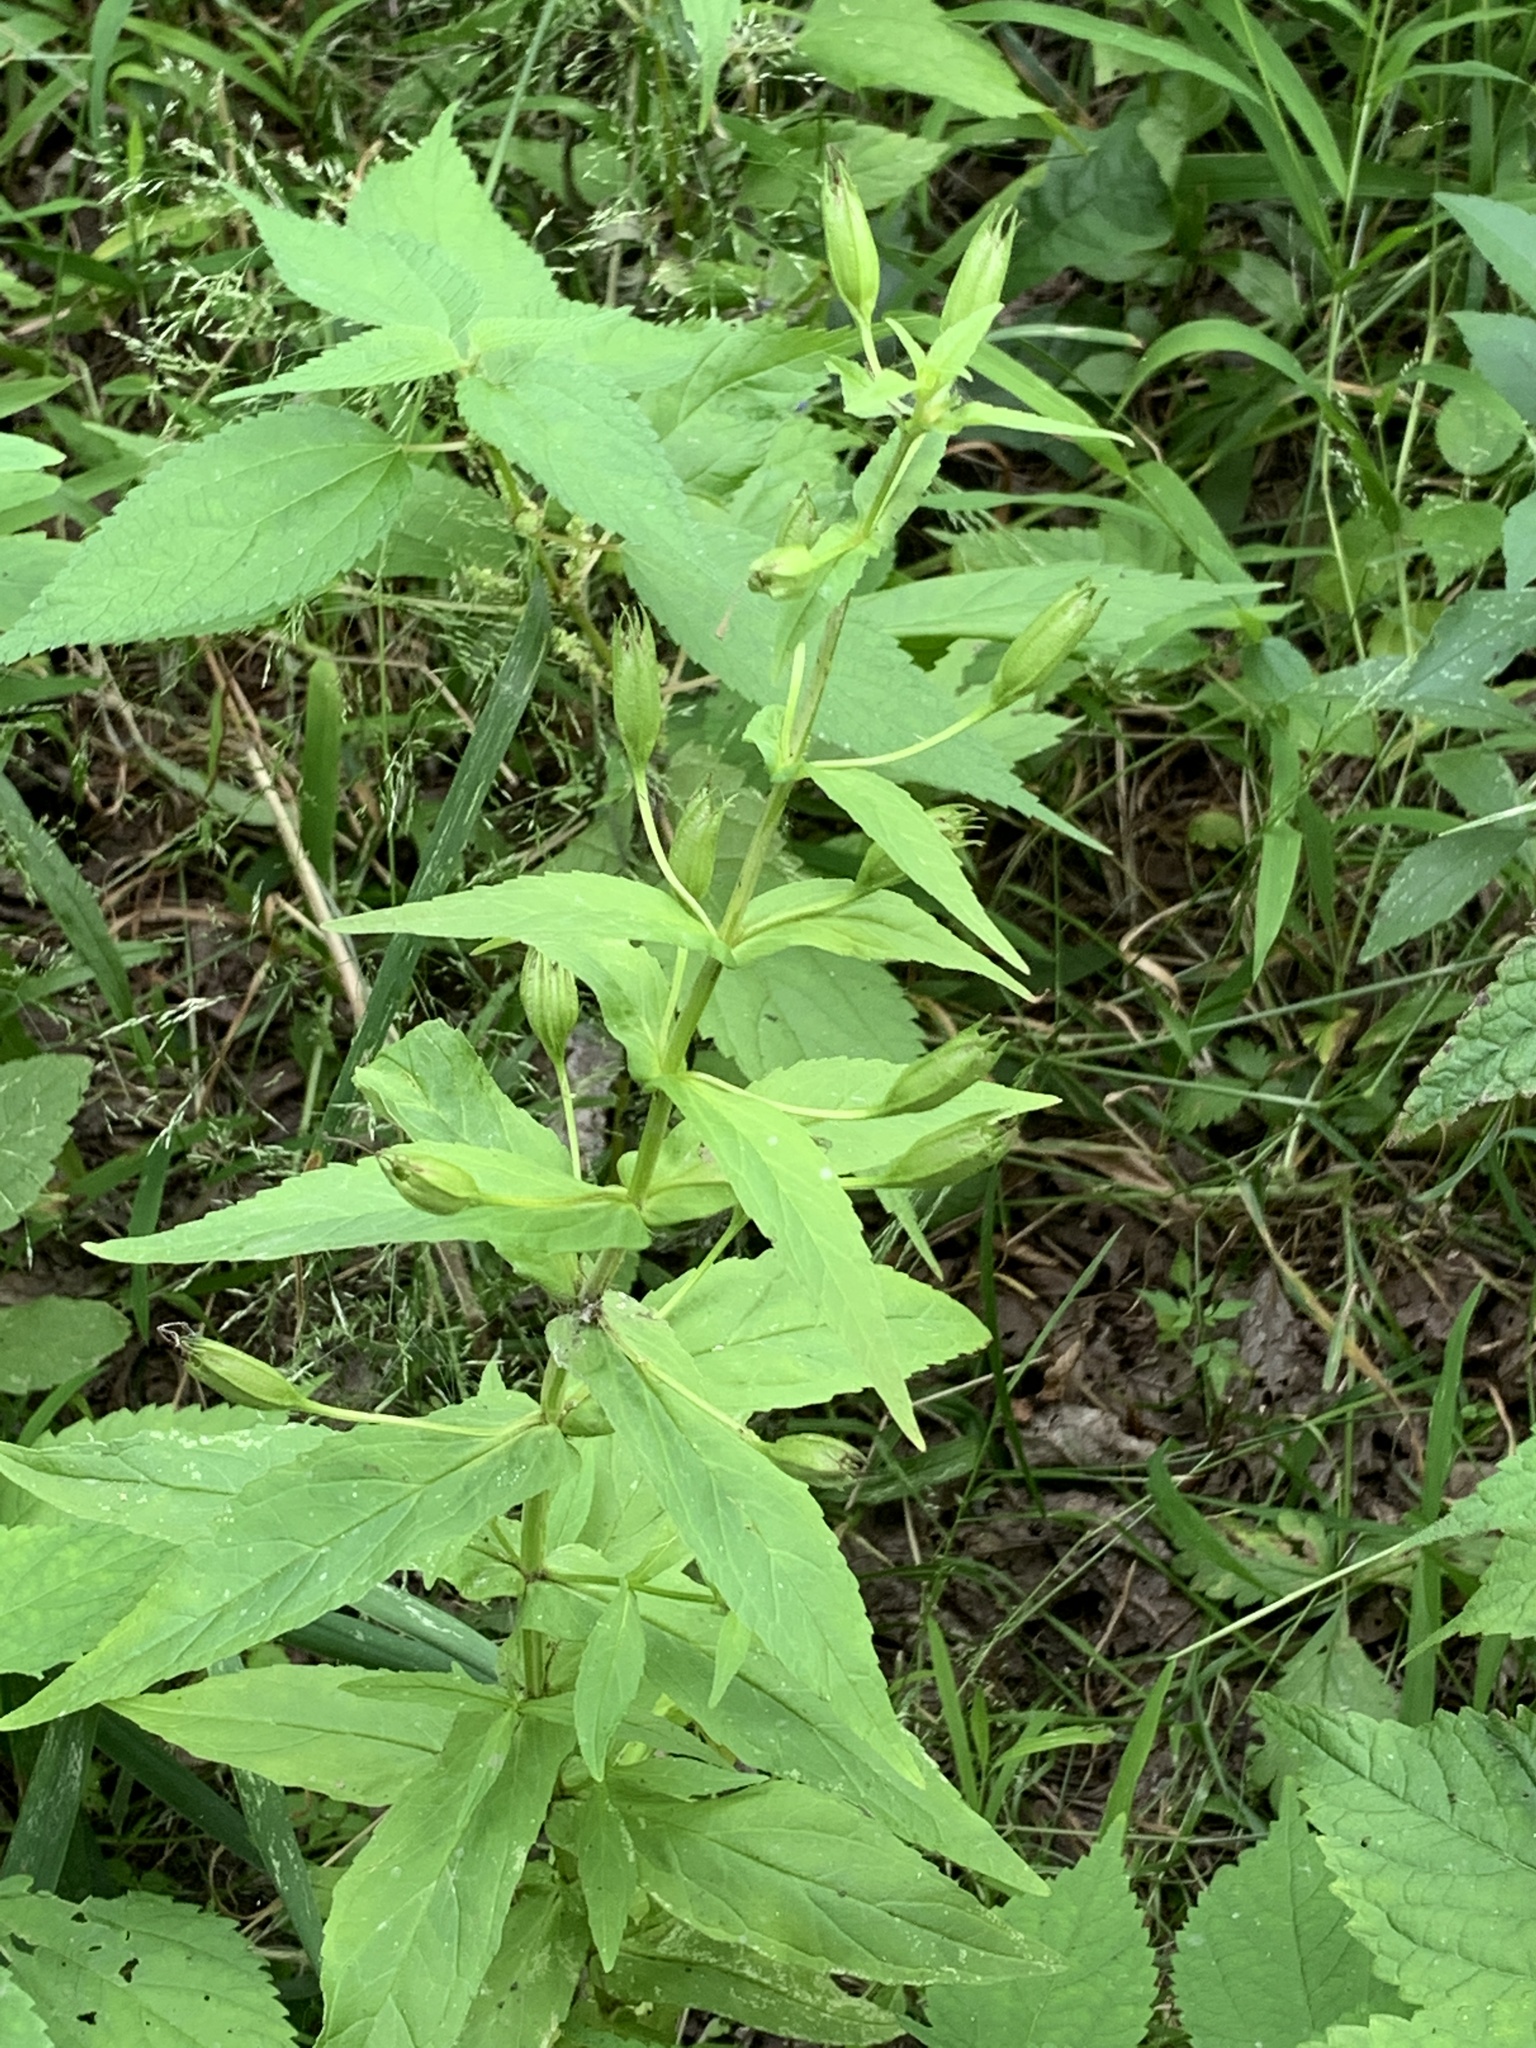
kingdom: Plantae
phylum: Tracheophyta
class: Magnoliopsida
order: Lamiales
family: Phrymaceae
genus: Mimulus
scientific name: Mimulus ringens
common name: Allegheny monkeyflower
